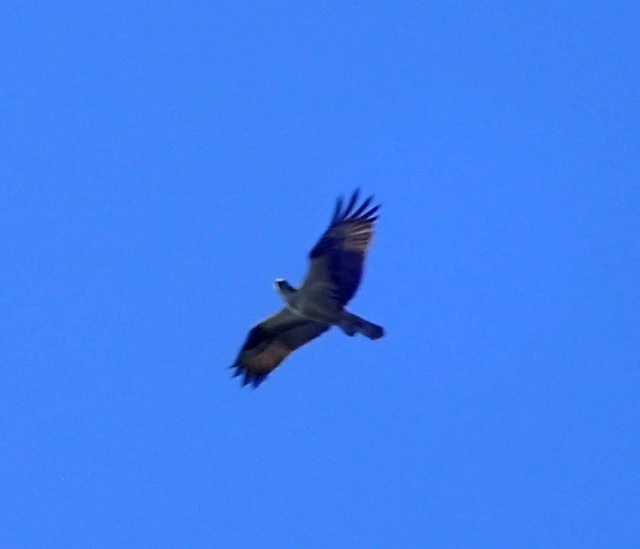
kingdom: Animalia
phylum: Chordata
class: Aves
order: Accipitriformes
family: Pandionidae
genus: Pandion
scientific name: Pandion haliaetus
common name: Osprey
